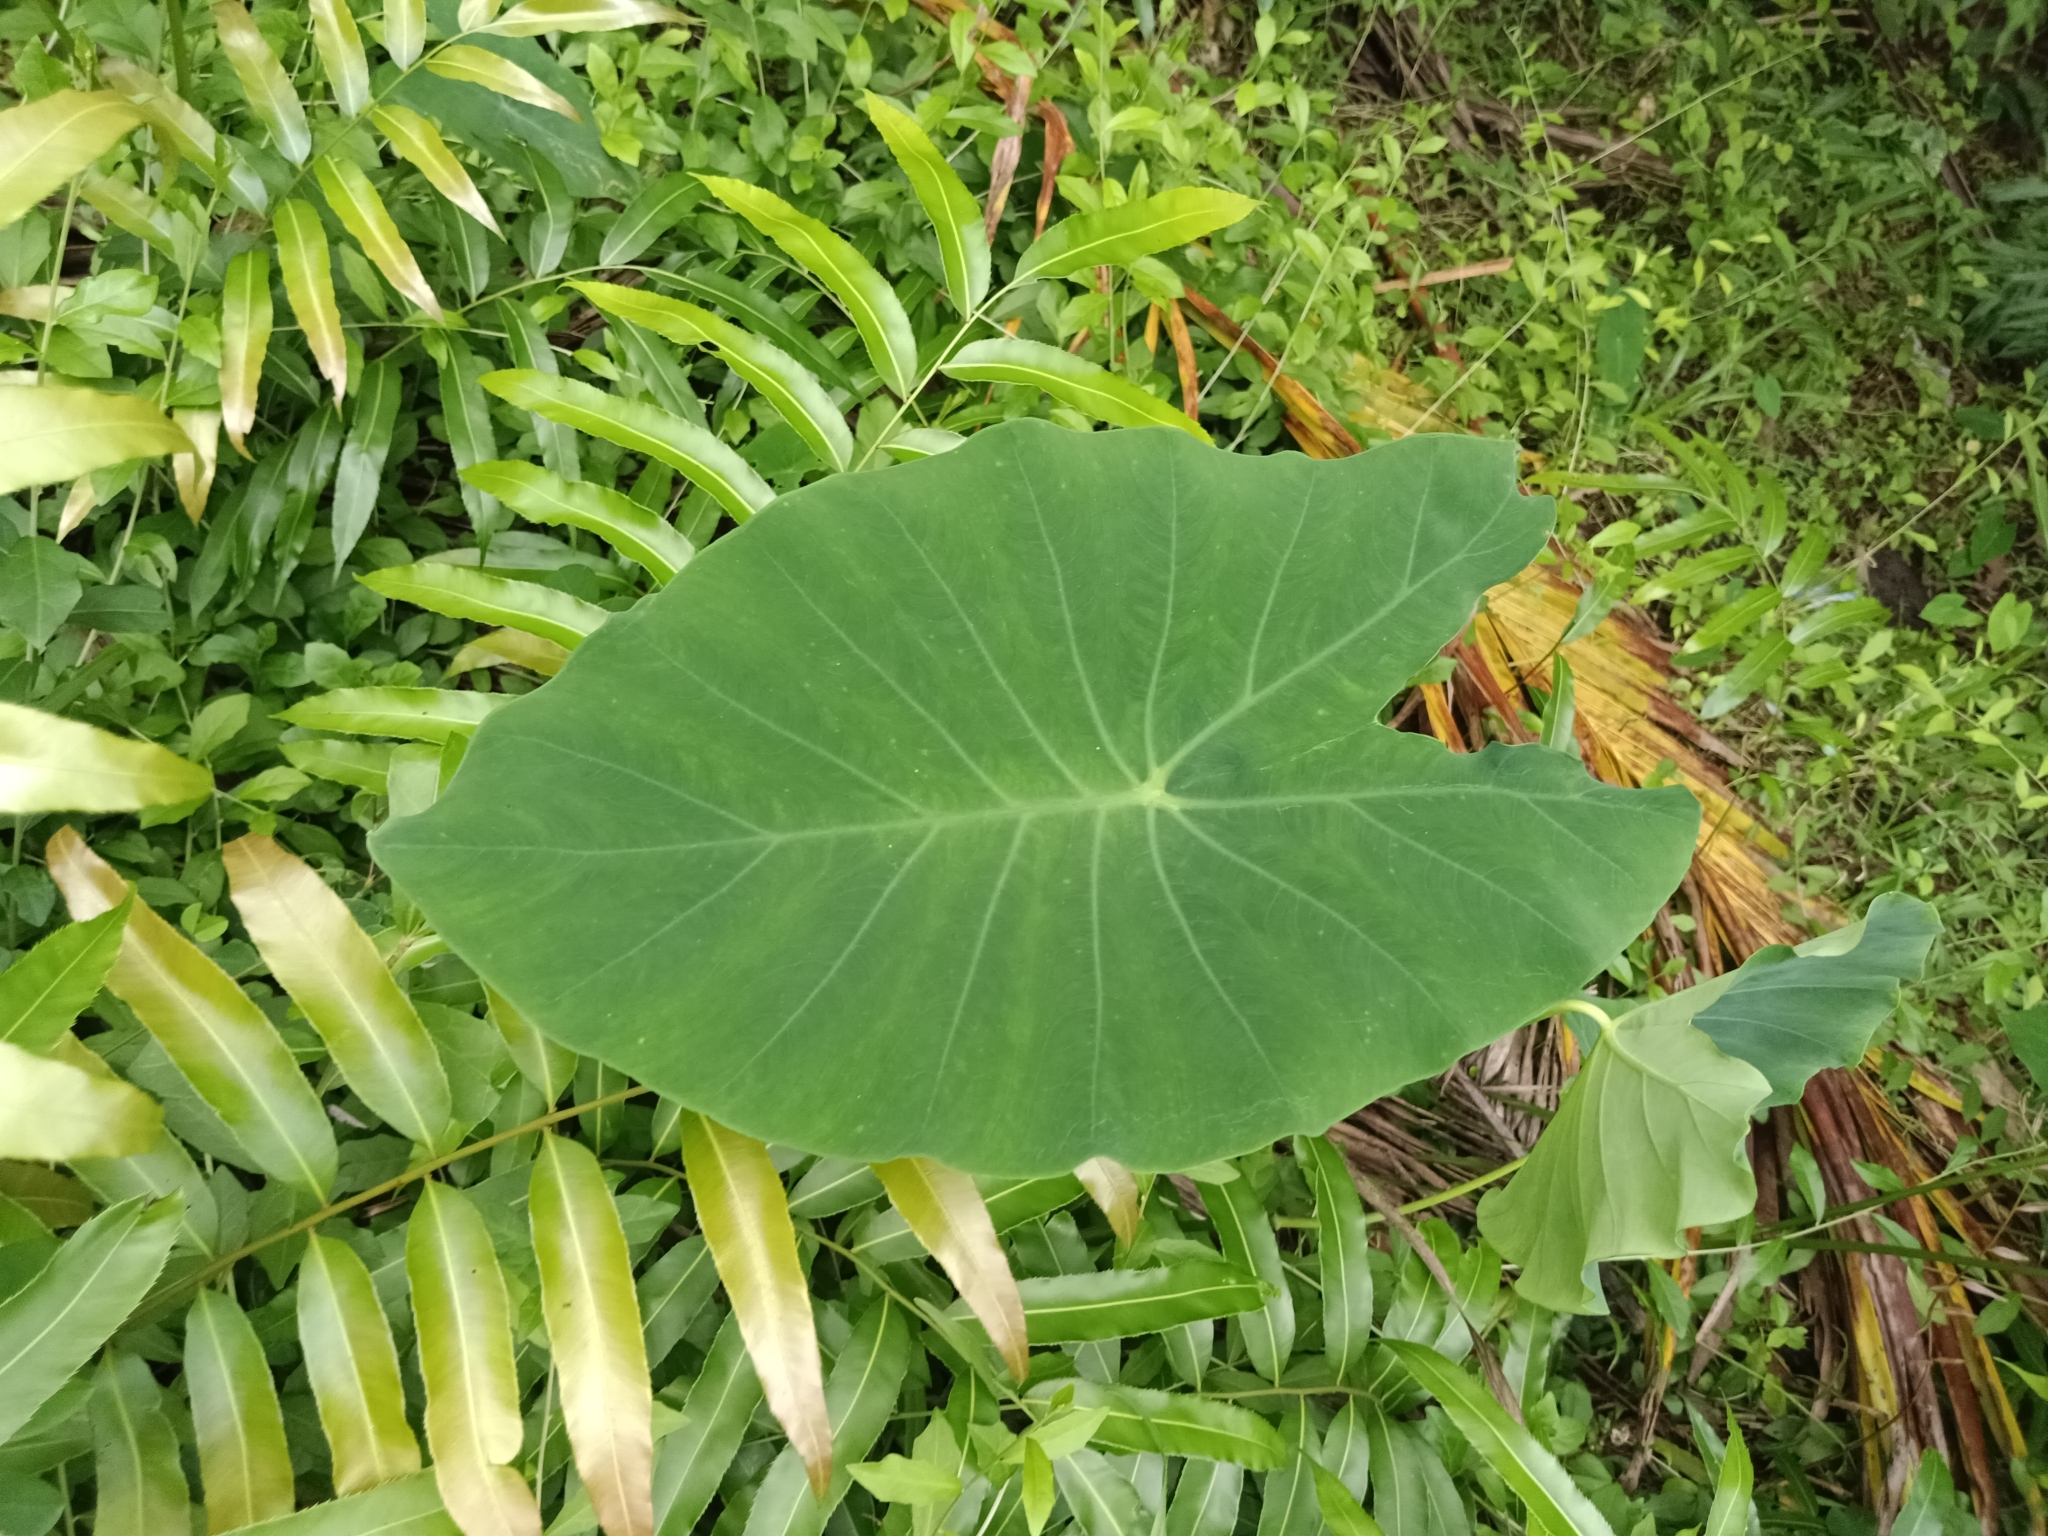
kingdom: Plantae
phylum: Tracheophyta
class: Liliopsida
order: Alismatales
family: Araceae
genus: Colocasia
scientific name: Colocasia esculenta
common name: Taro
